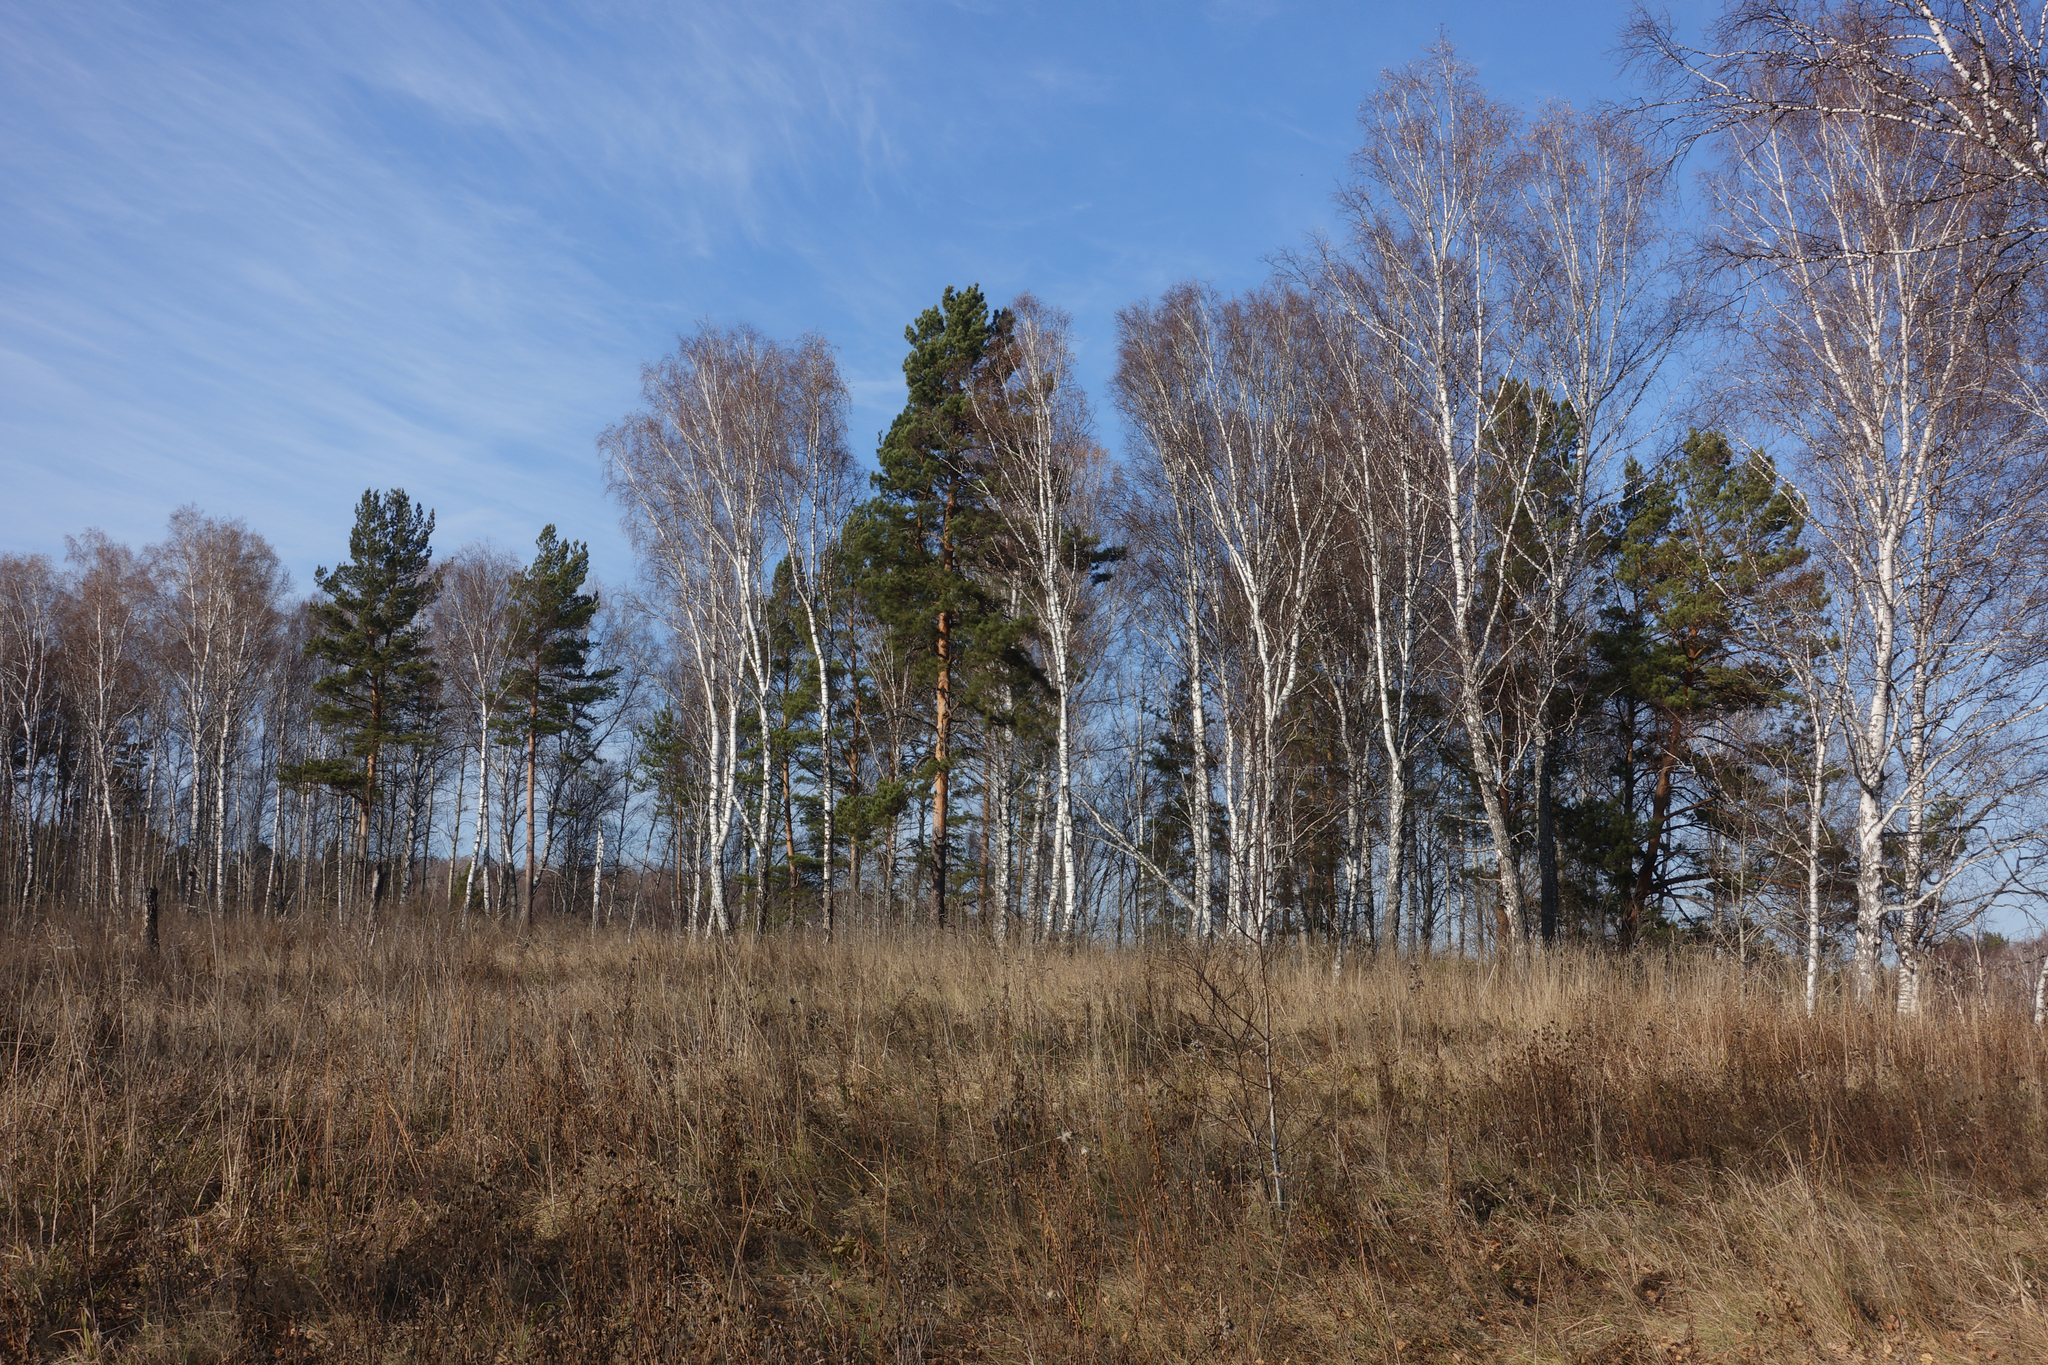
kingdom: Plantae
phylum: Tracheophyta
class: Pinopsida
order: Pinales
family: Pinaceae
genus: Pinus
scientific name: Pinus sylvestris
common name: Scots pine
